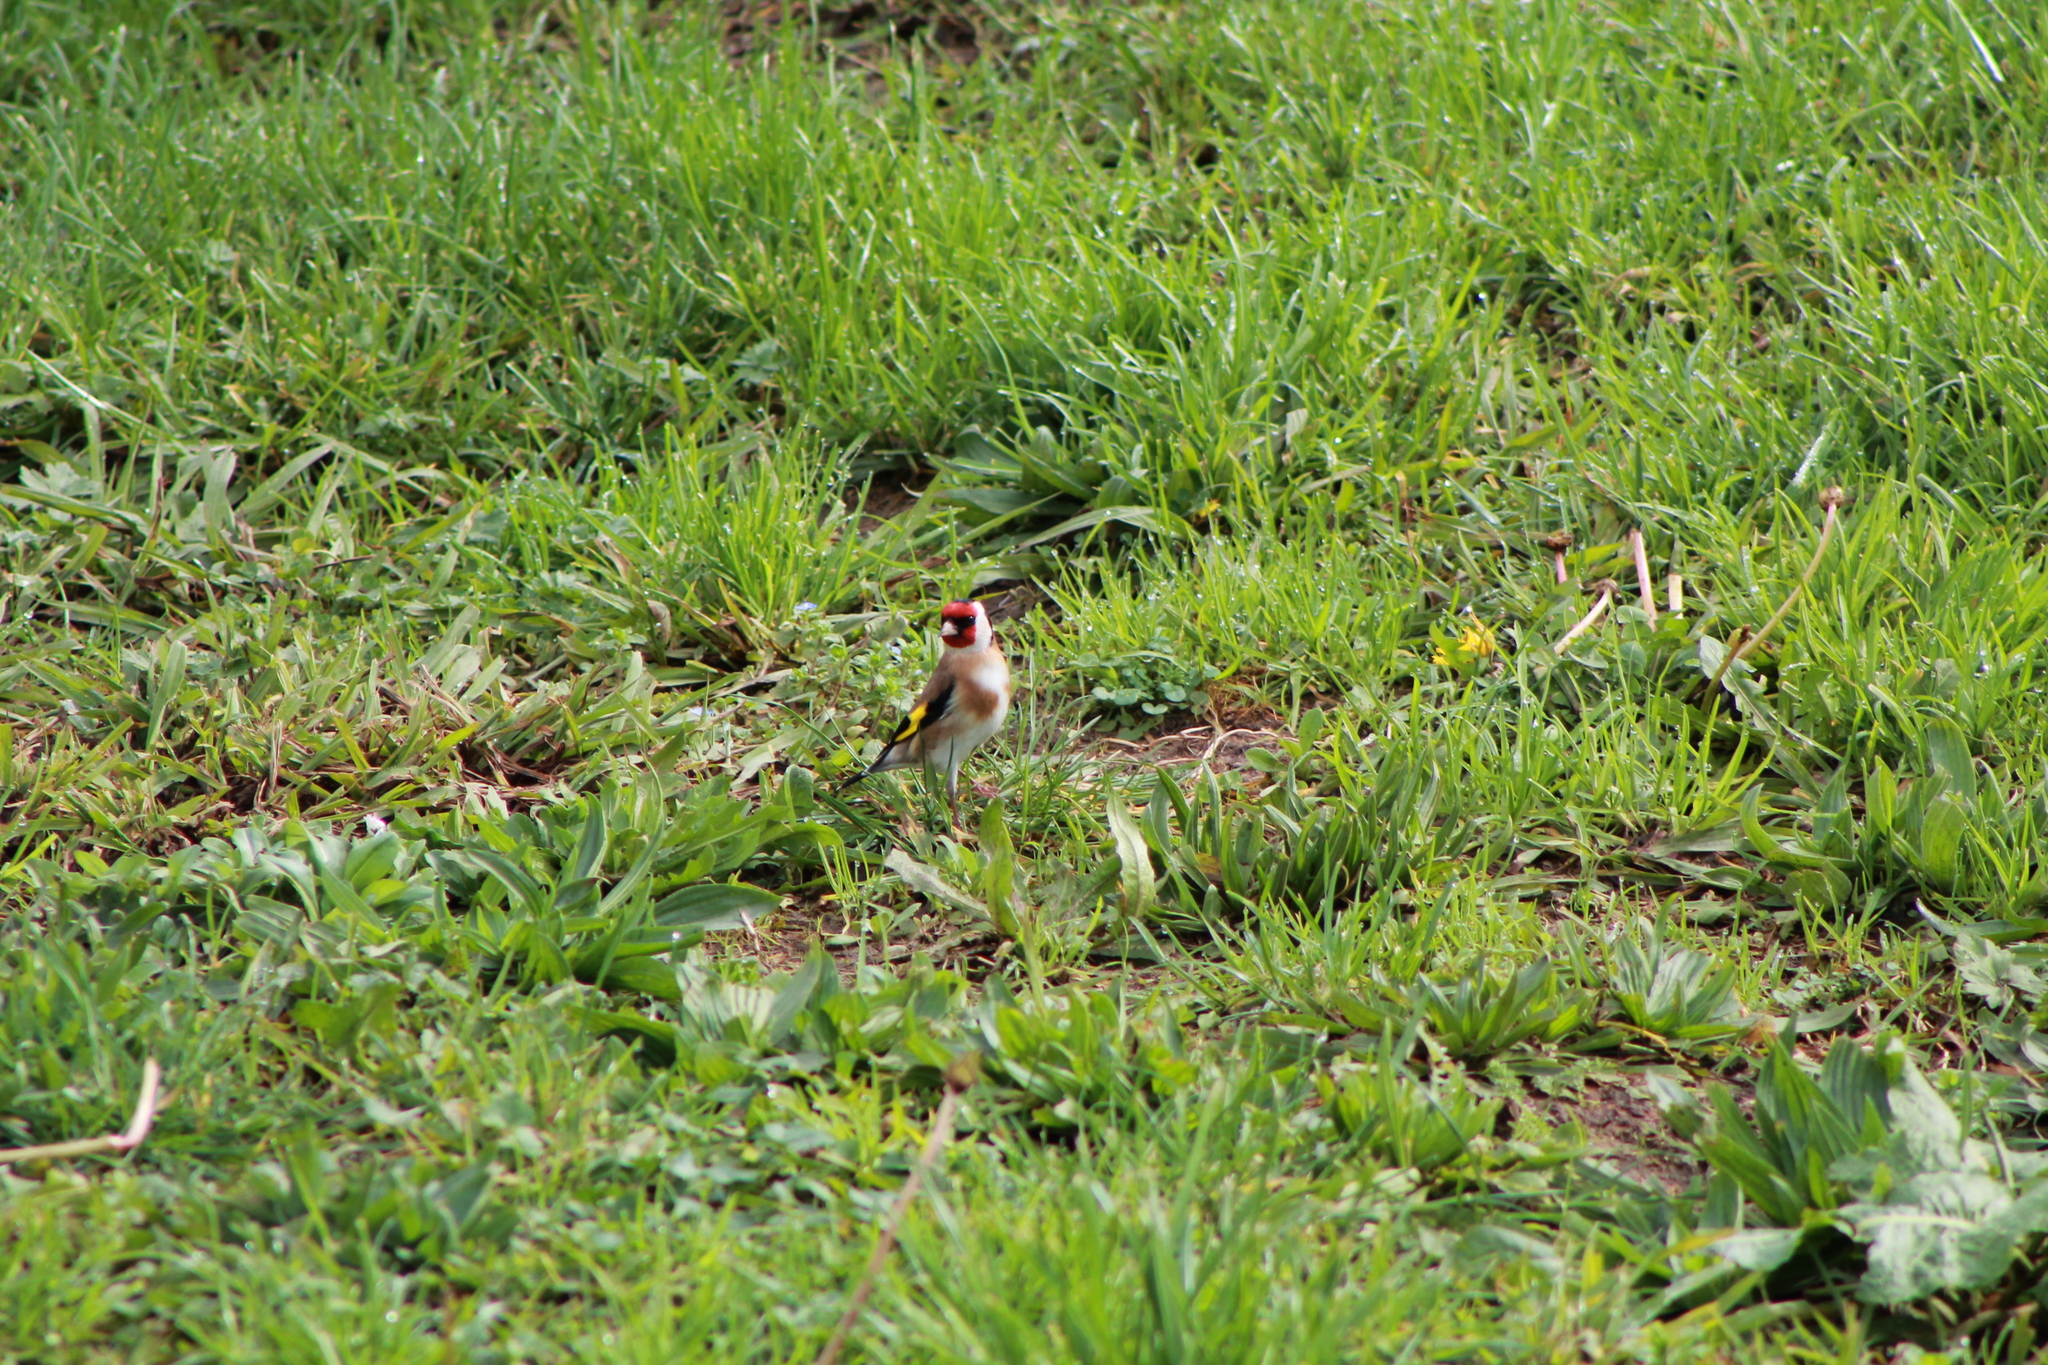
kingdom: Animalia
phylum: Chordata
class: Aves
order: Passeriformes
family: Fringillidae
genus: Carduelis
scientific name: Carduelis carduelis
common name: European goldfinch
